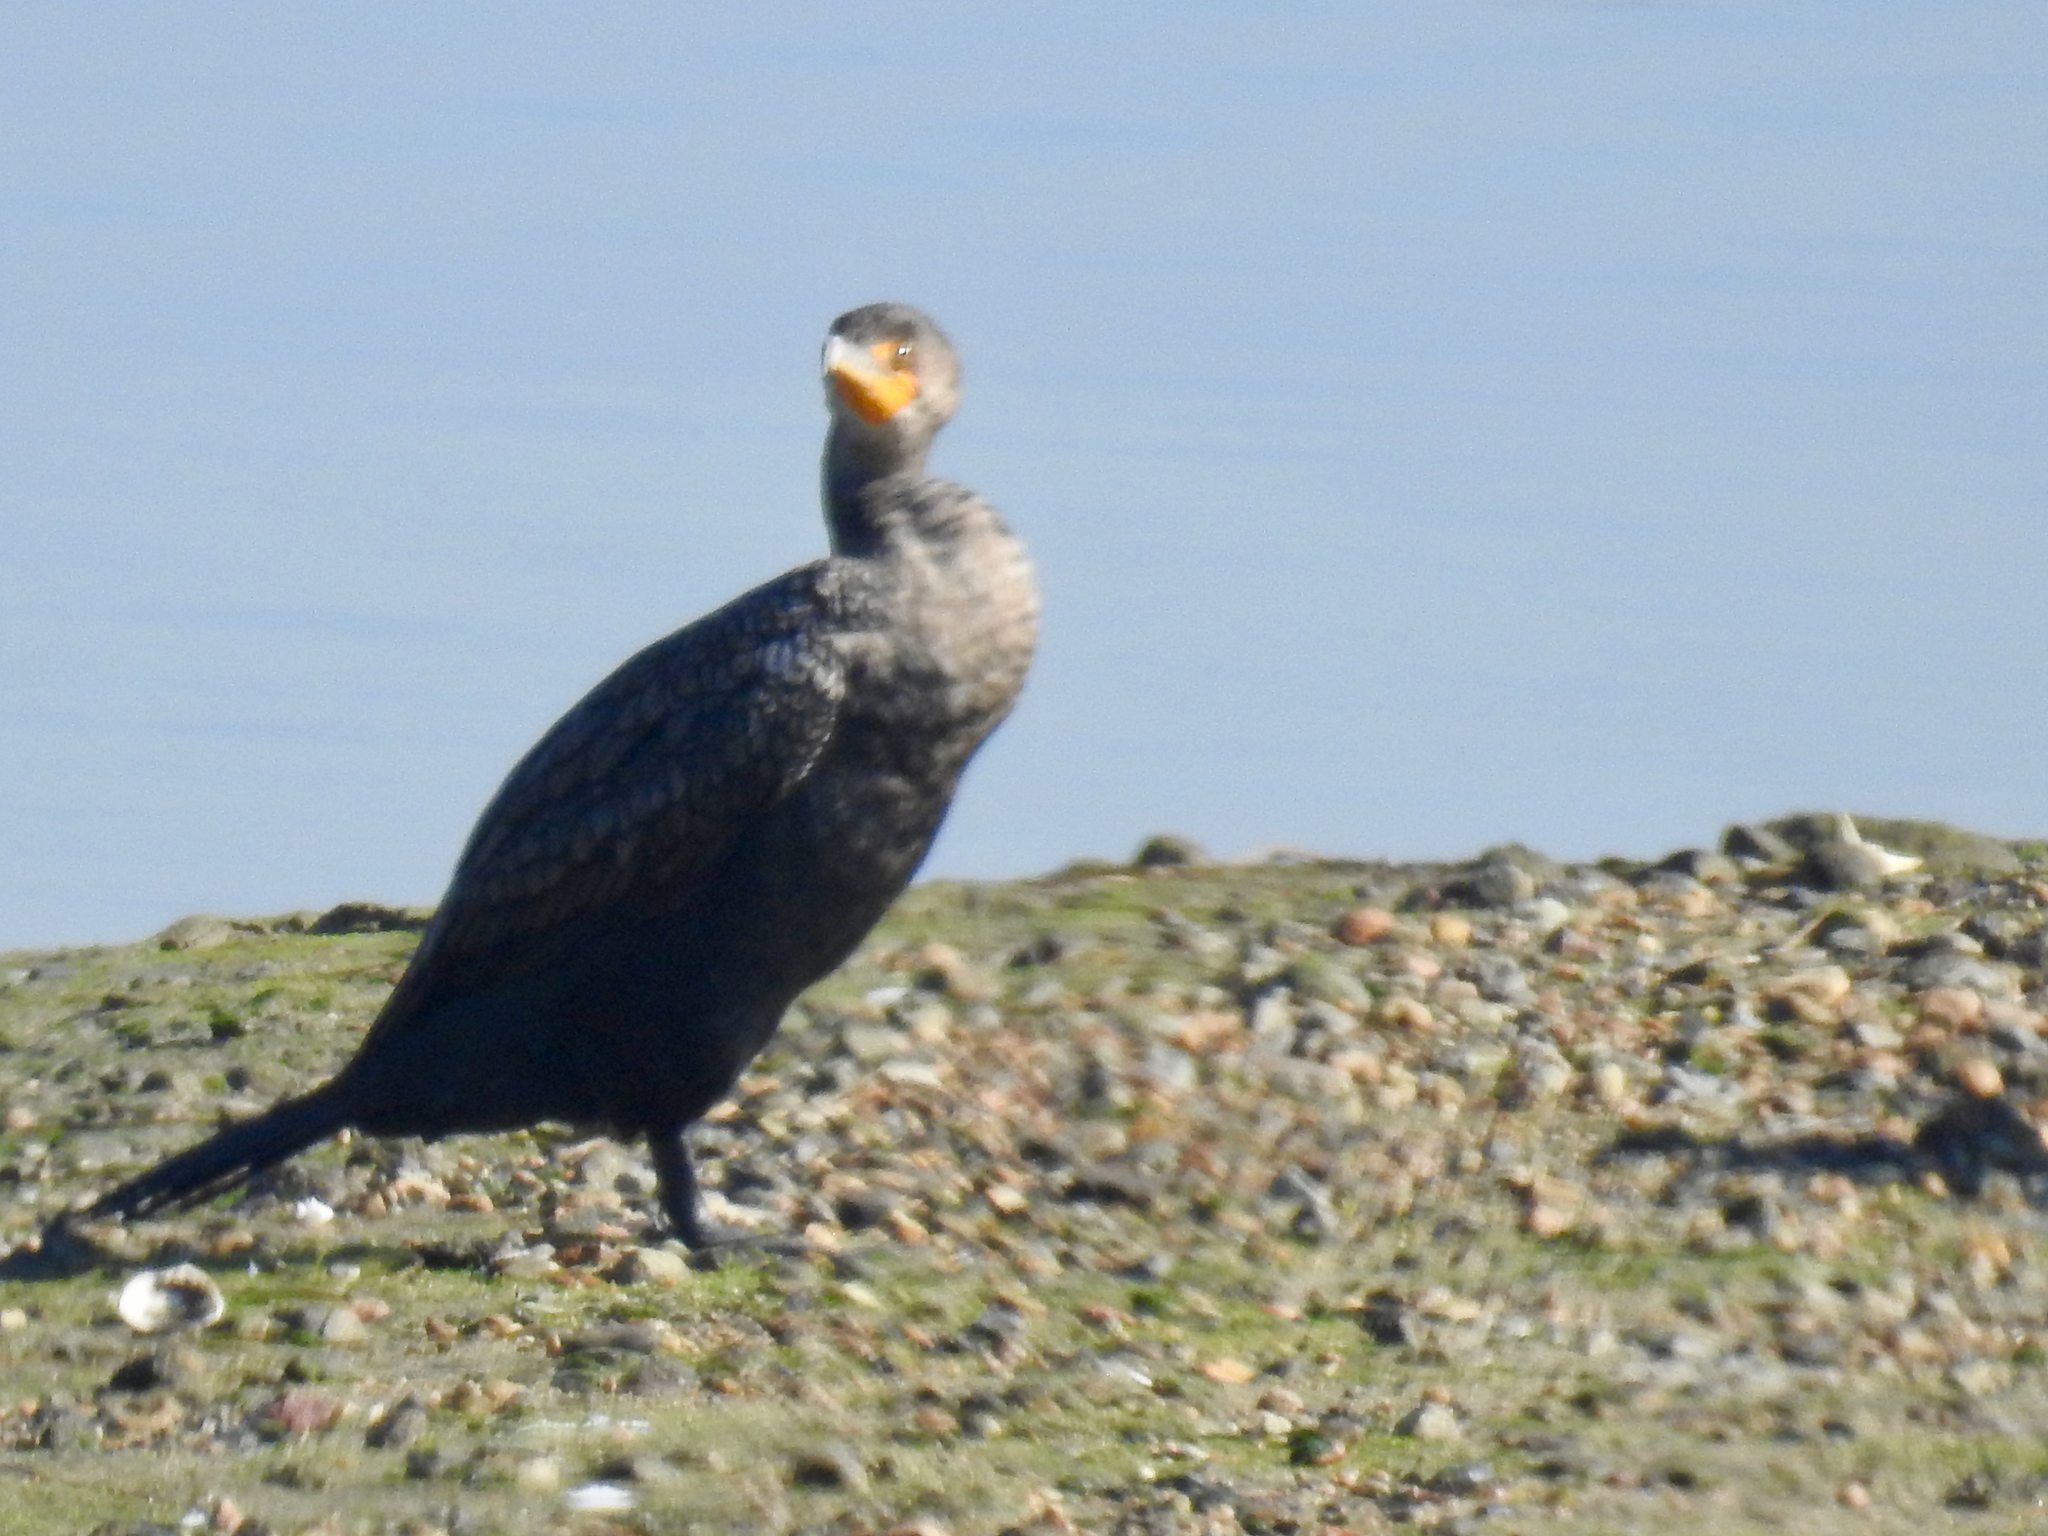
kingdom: Animalia
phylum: Chordata
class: Aves
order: Suliformes
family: Phalacrocoracidae
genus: Phalacrocorax
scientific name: Phalacrocorax auritus
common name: Double-crested cormorant
